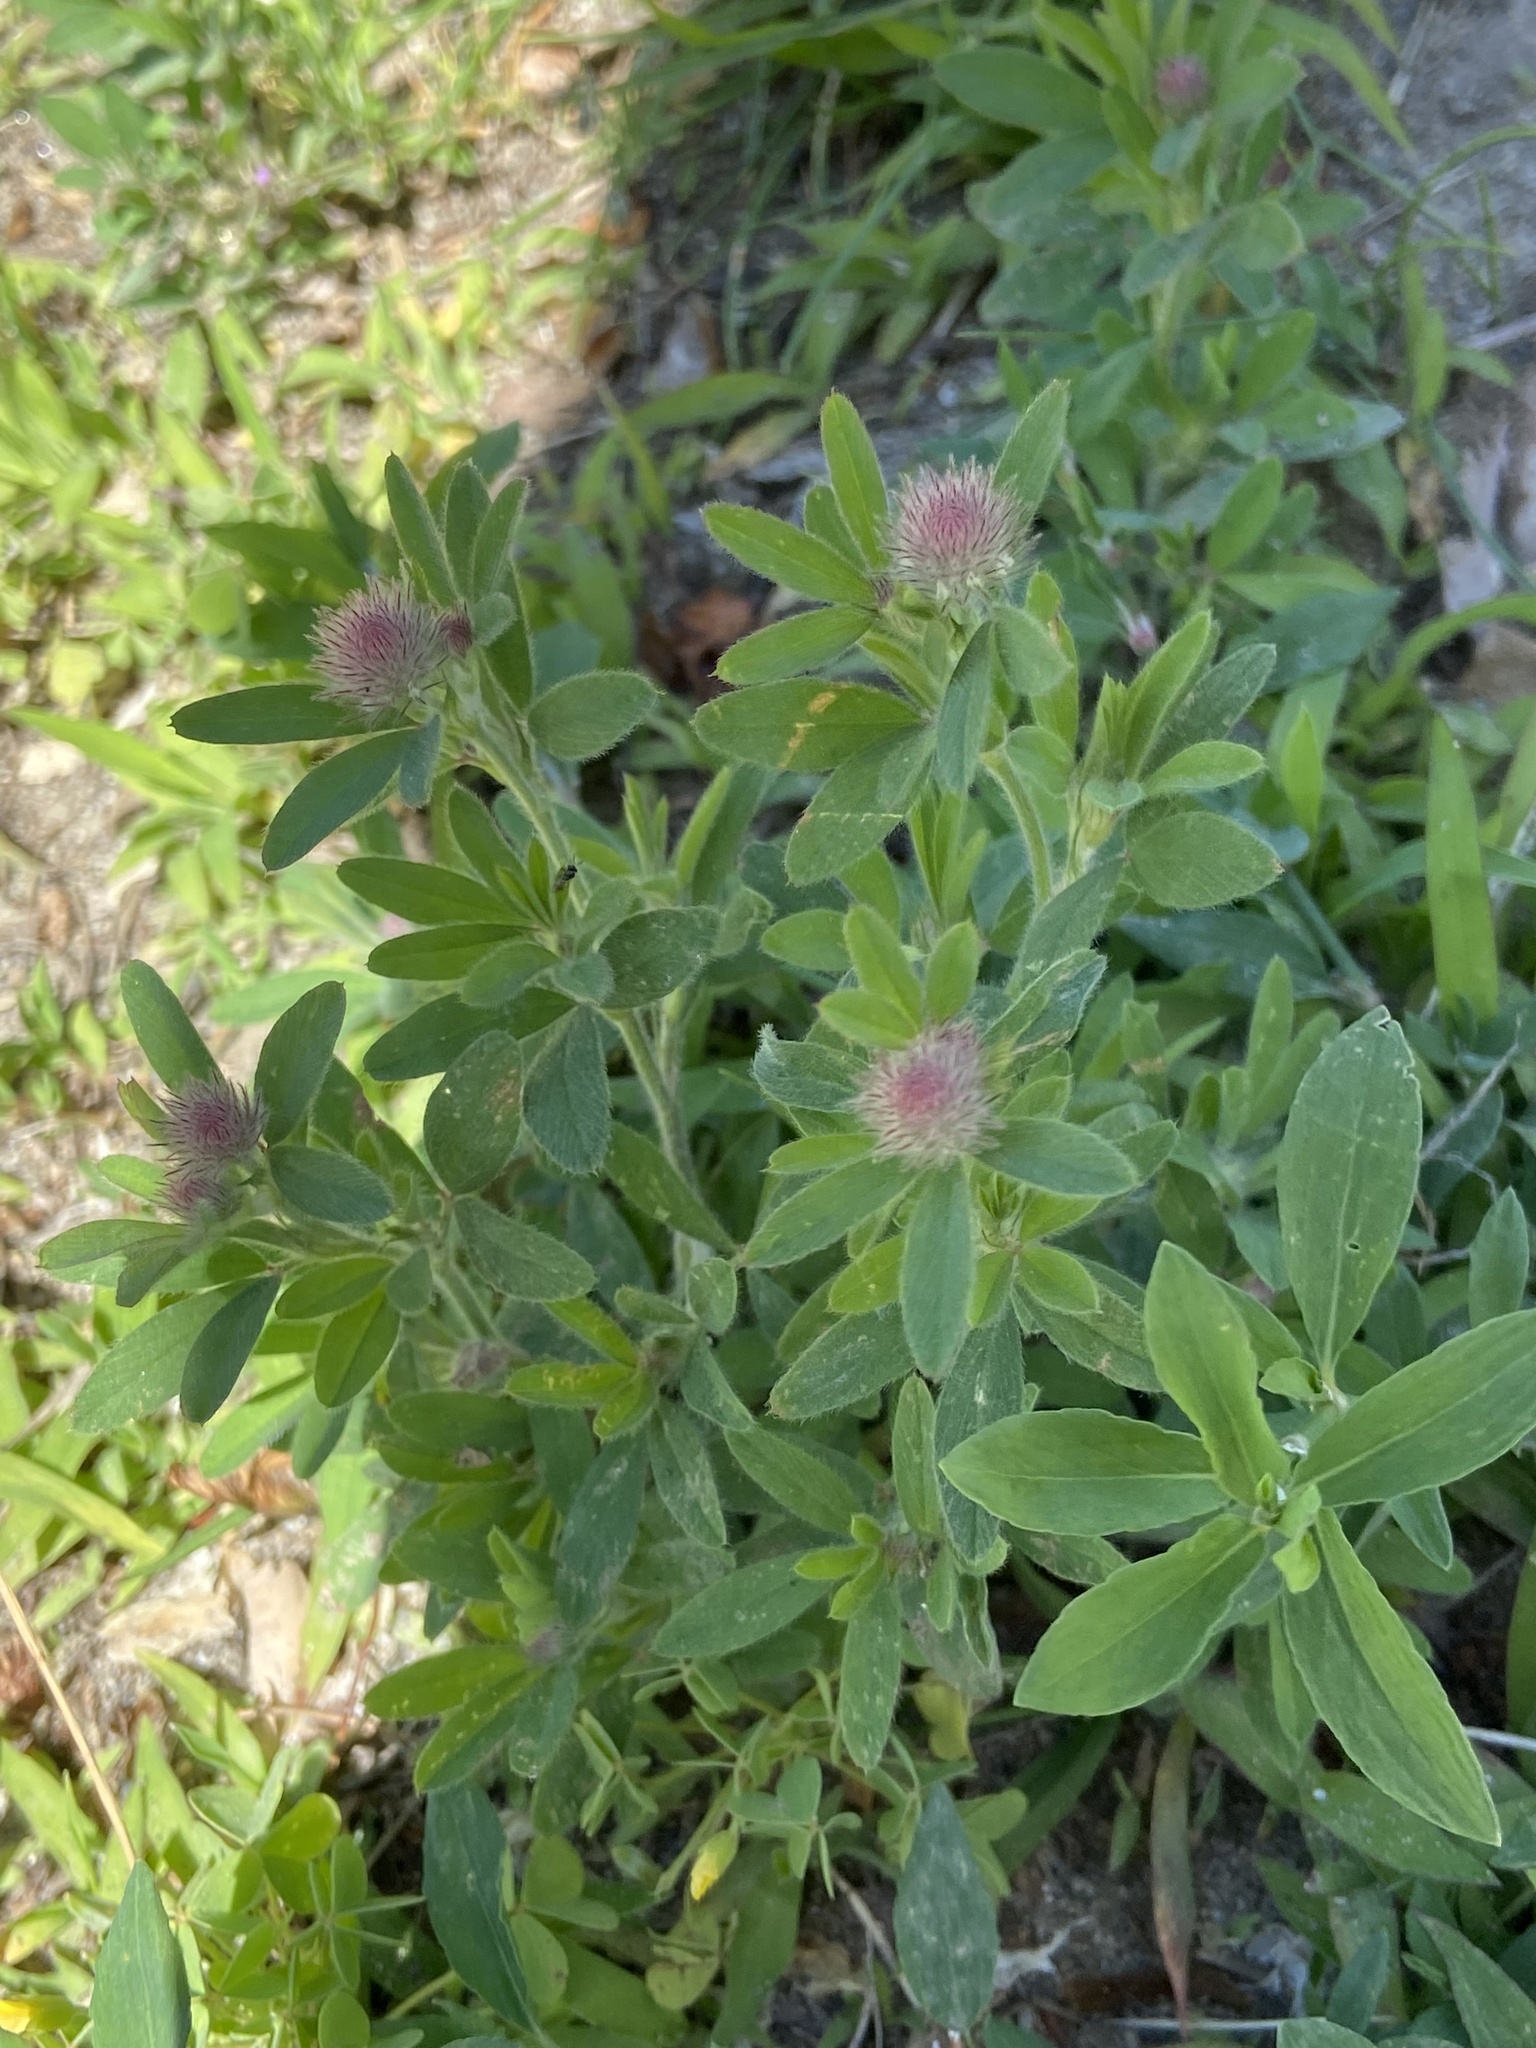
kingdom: Plantae
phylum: Tracheophyta
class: Magnoliopsida
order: Fabales
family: Fabaceae
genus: Trifolium
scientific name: Trifolium arvense
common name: Hare's-foot clover
